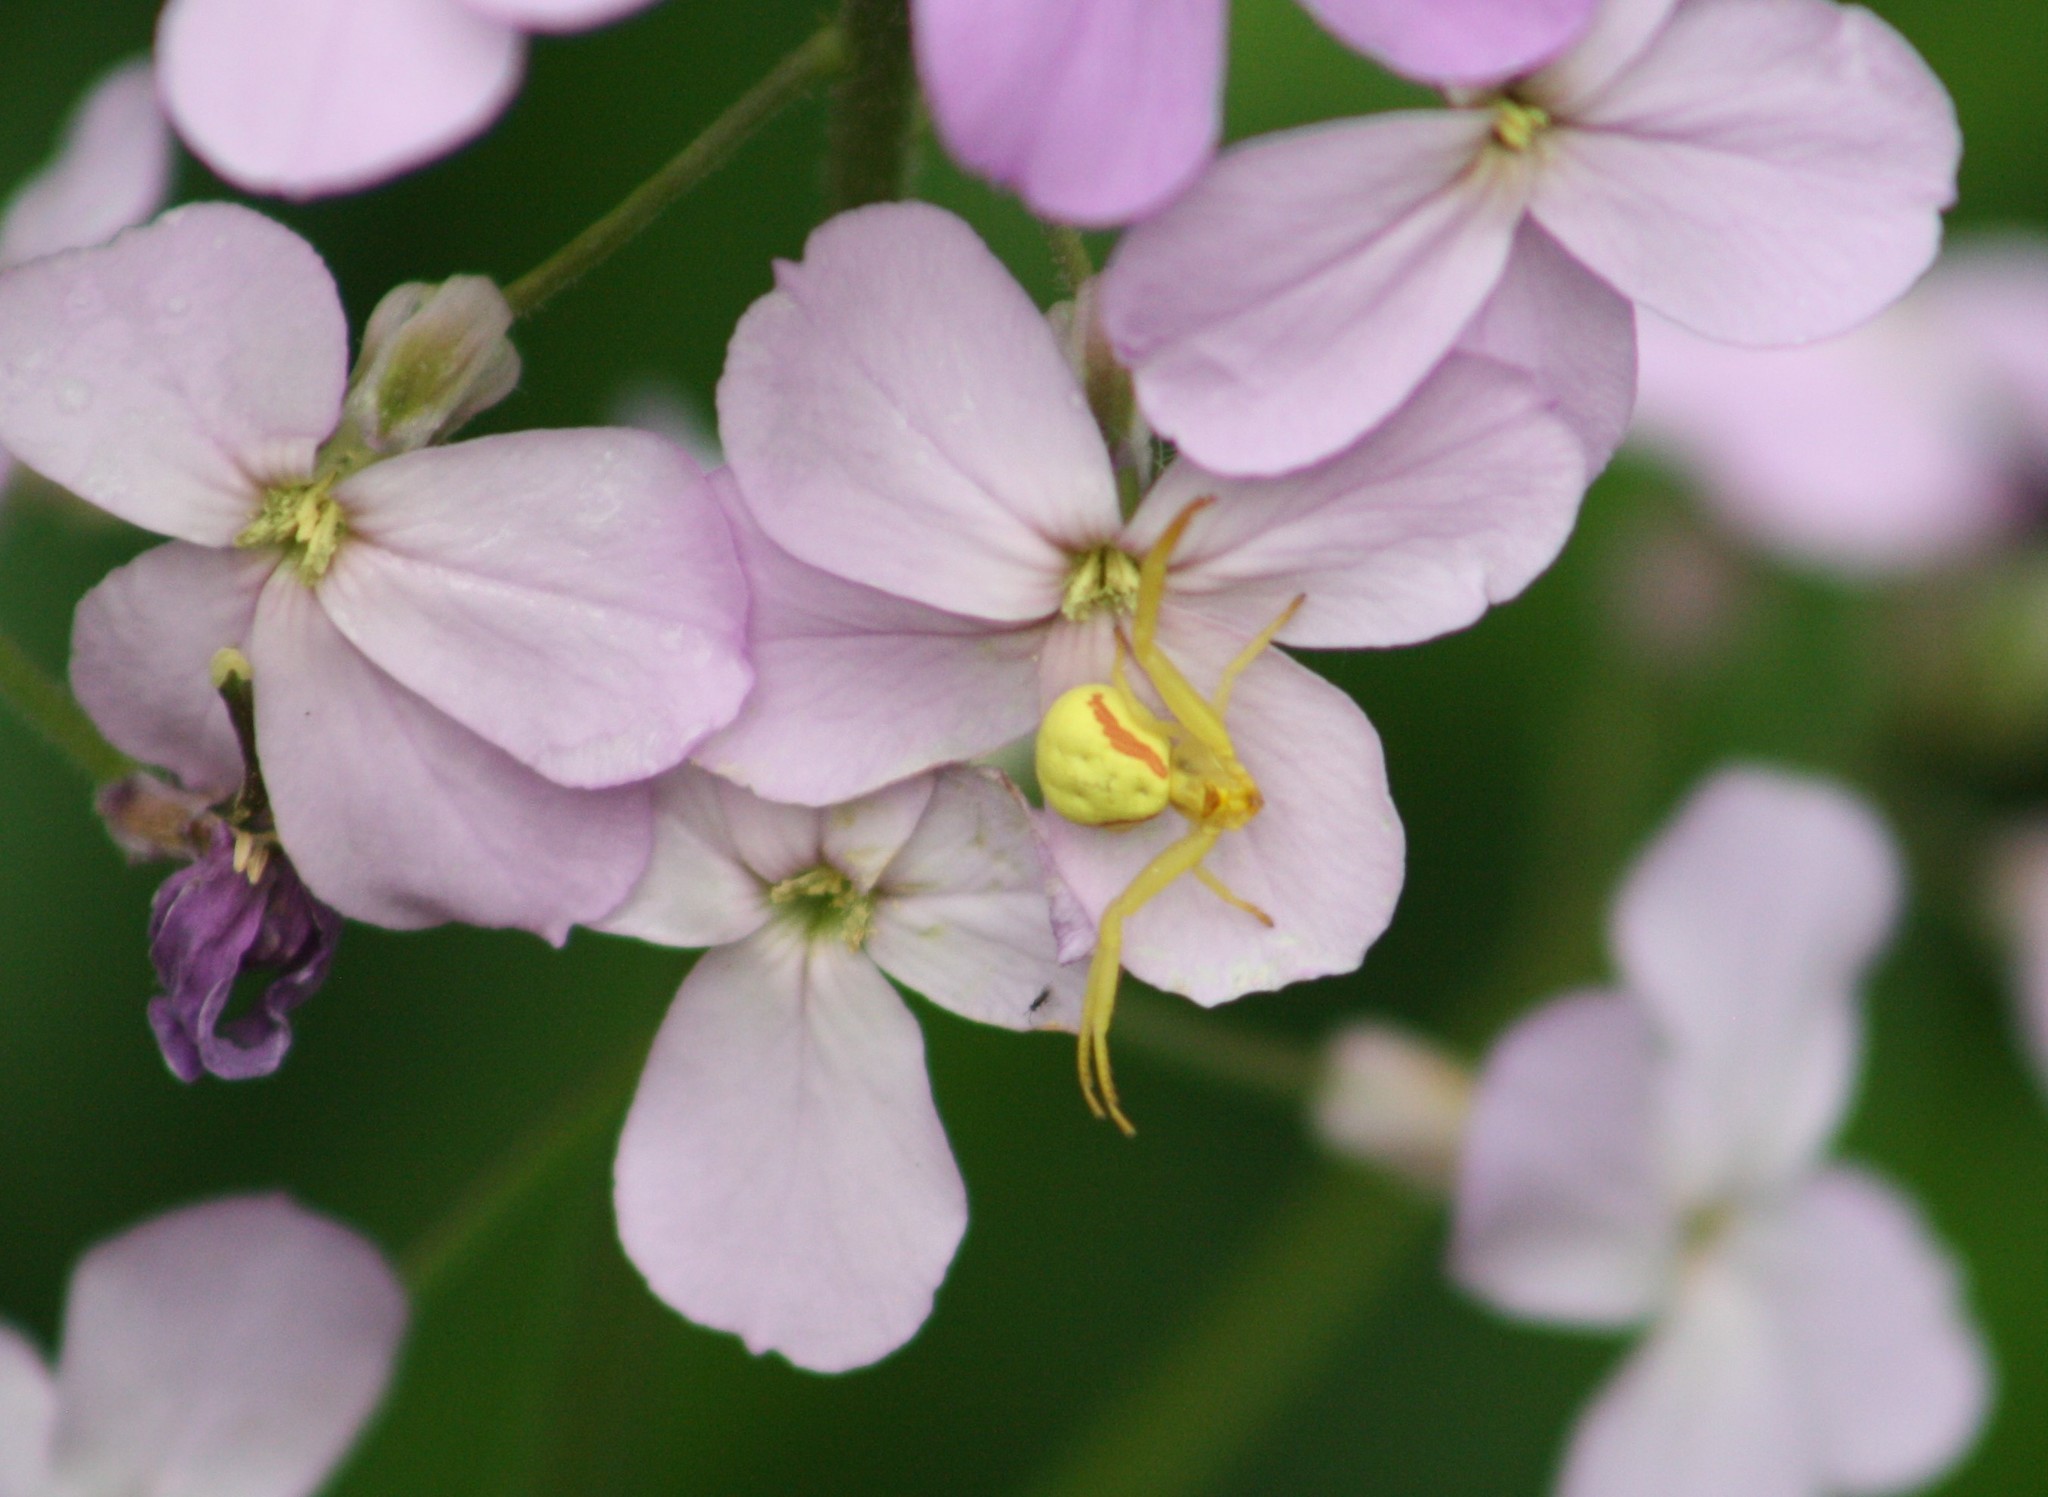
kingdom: Animalia
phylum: Arthropoda
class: Arachnida
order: Araneae
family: Thomisidae
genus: Misumena
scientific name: Misumena vatia
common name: Goldenrod crab spider
